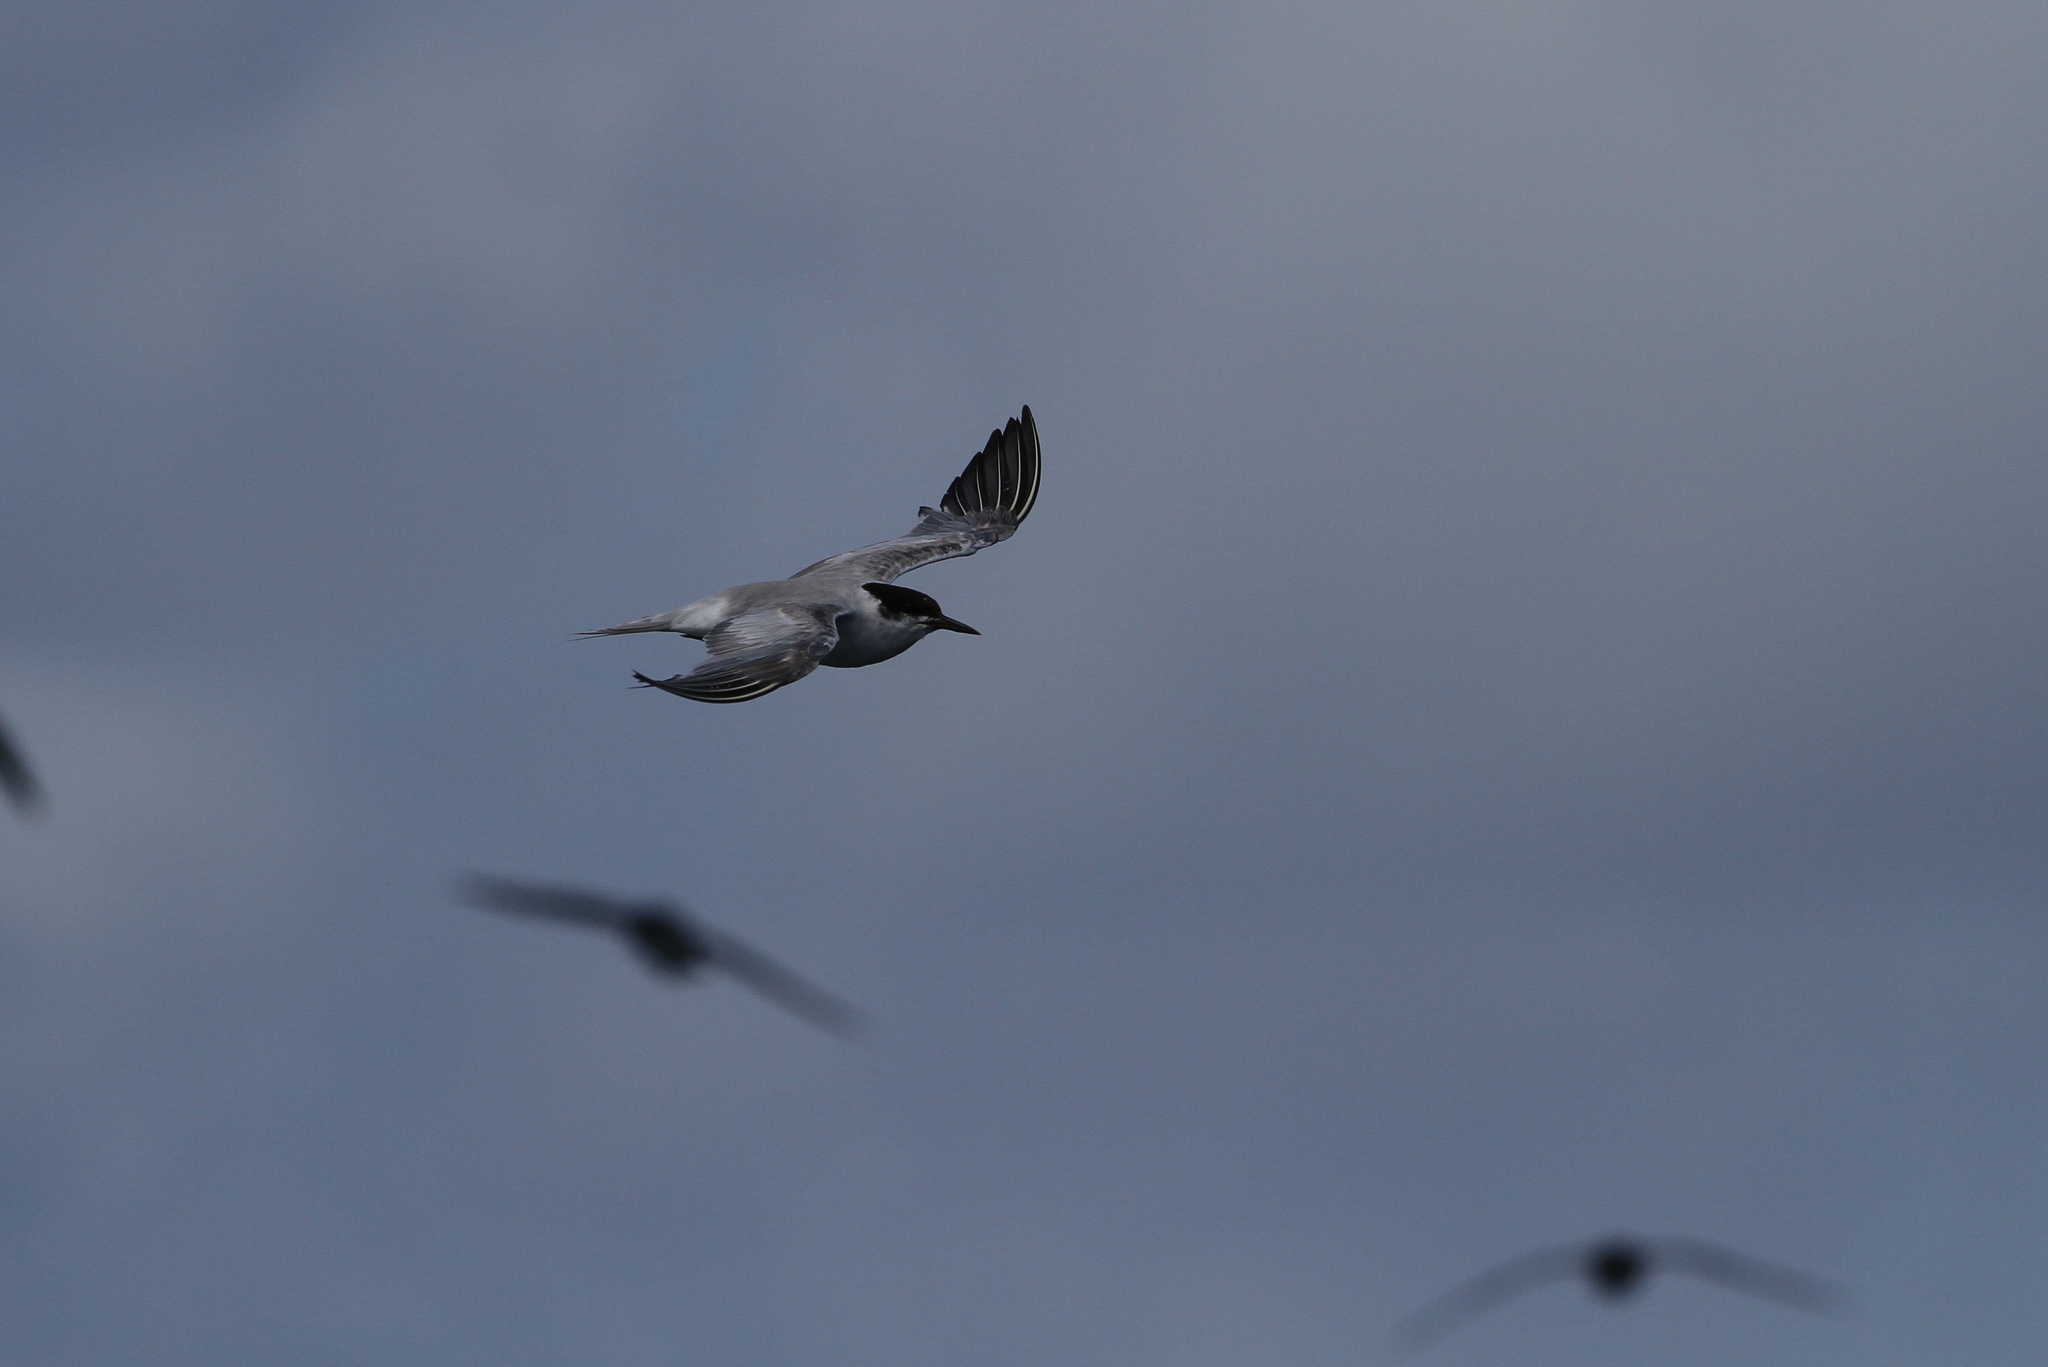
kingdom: Animalia
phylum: Chordata
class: Aves
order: Charadriiformes
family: Laridae
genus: Sterna
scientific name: Sterna hirundo
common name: Common tern
